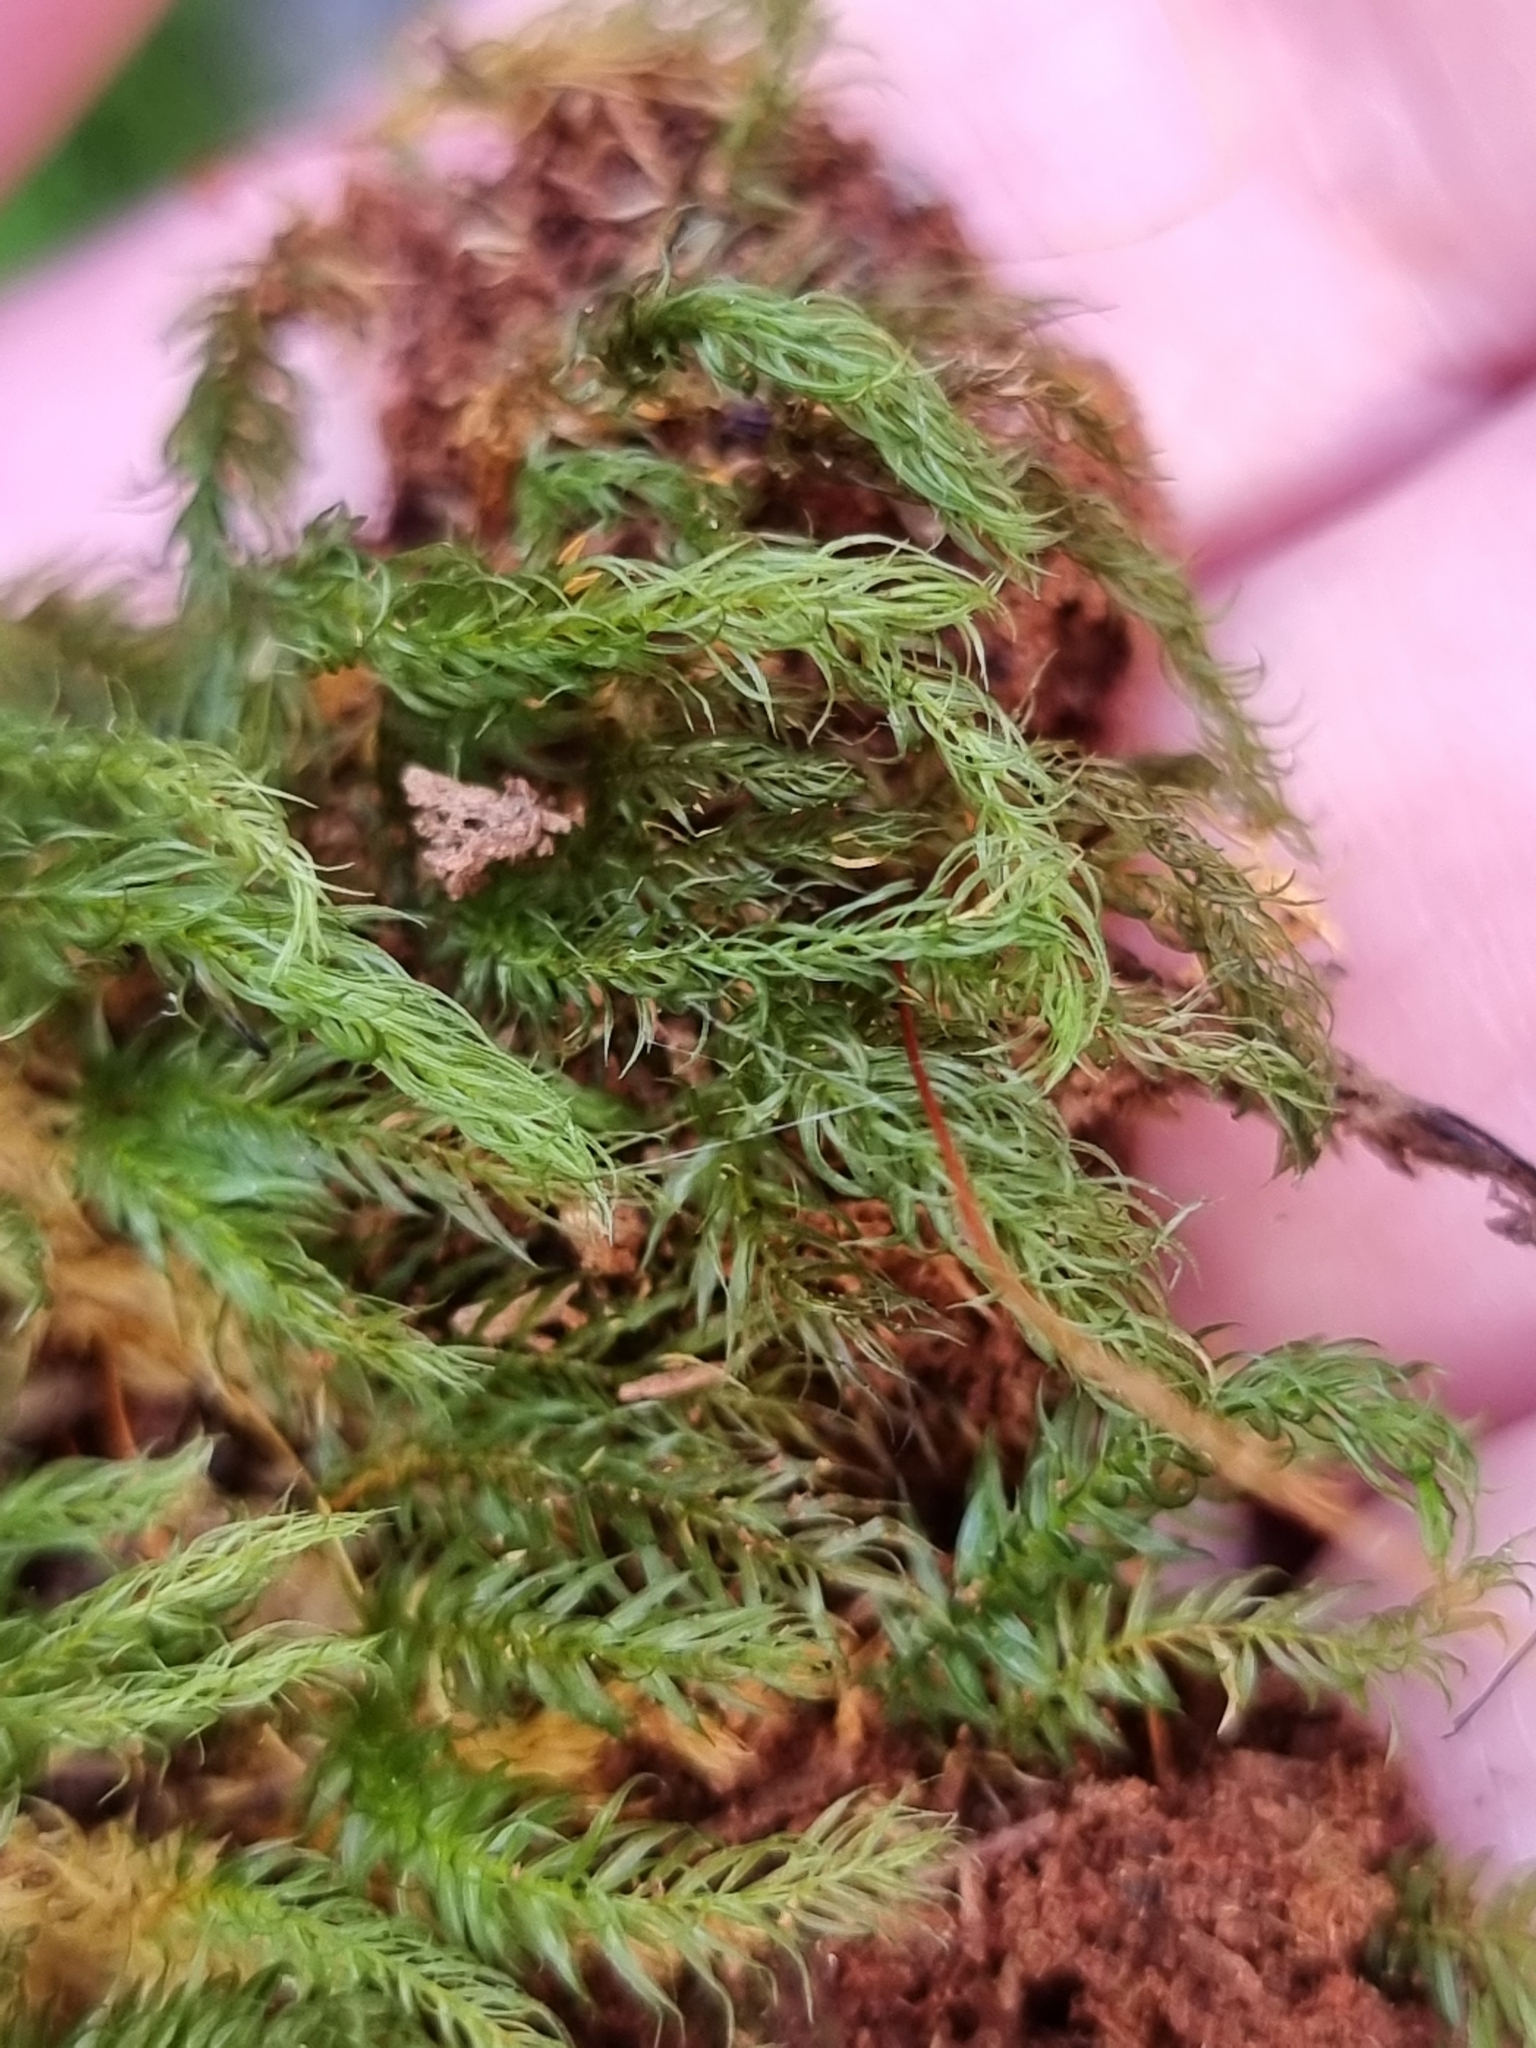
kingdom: Plantae
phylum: Bryophyta
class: Bryopsida
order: Rhizogoniales
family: Calomniaceae
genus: Pyrrhobryum
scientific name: Pyrrhobryum paramattense
